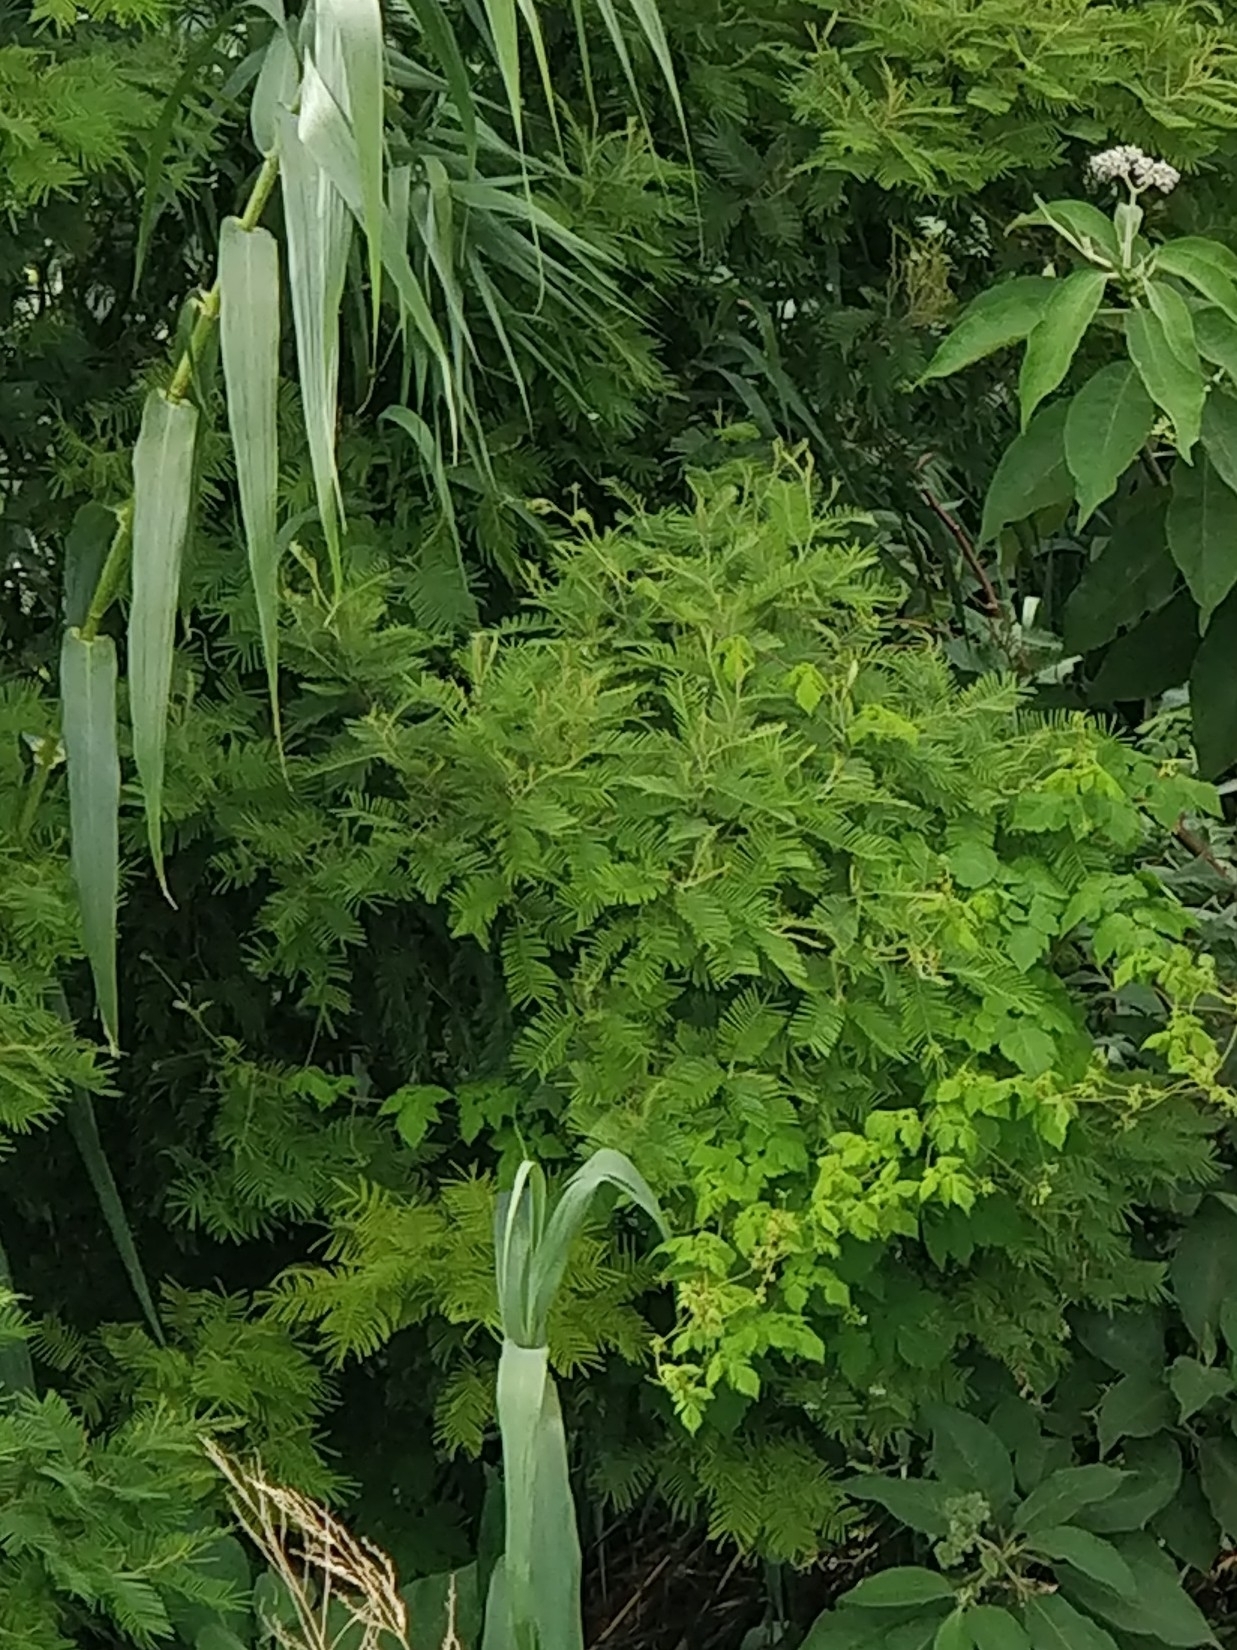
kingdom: Plantae
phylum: Tracheophyta
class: Magnoliopsida
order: Fabales
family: Fabaceae
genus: Acacia
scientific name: Acacia mearnsii
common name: Black wattle
